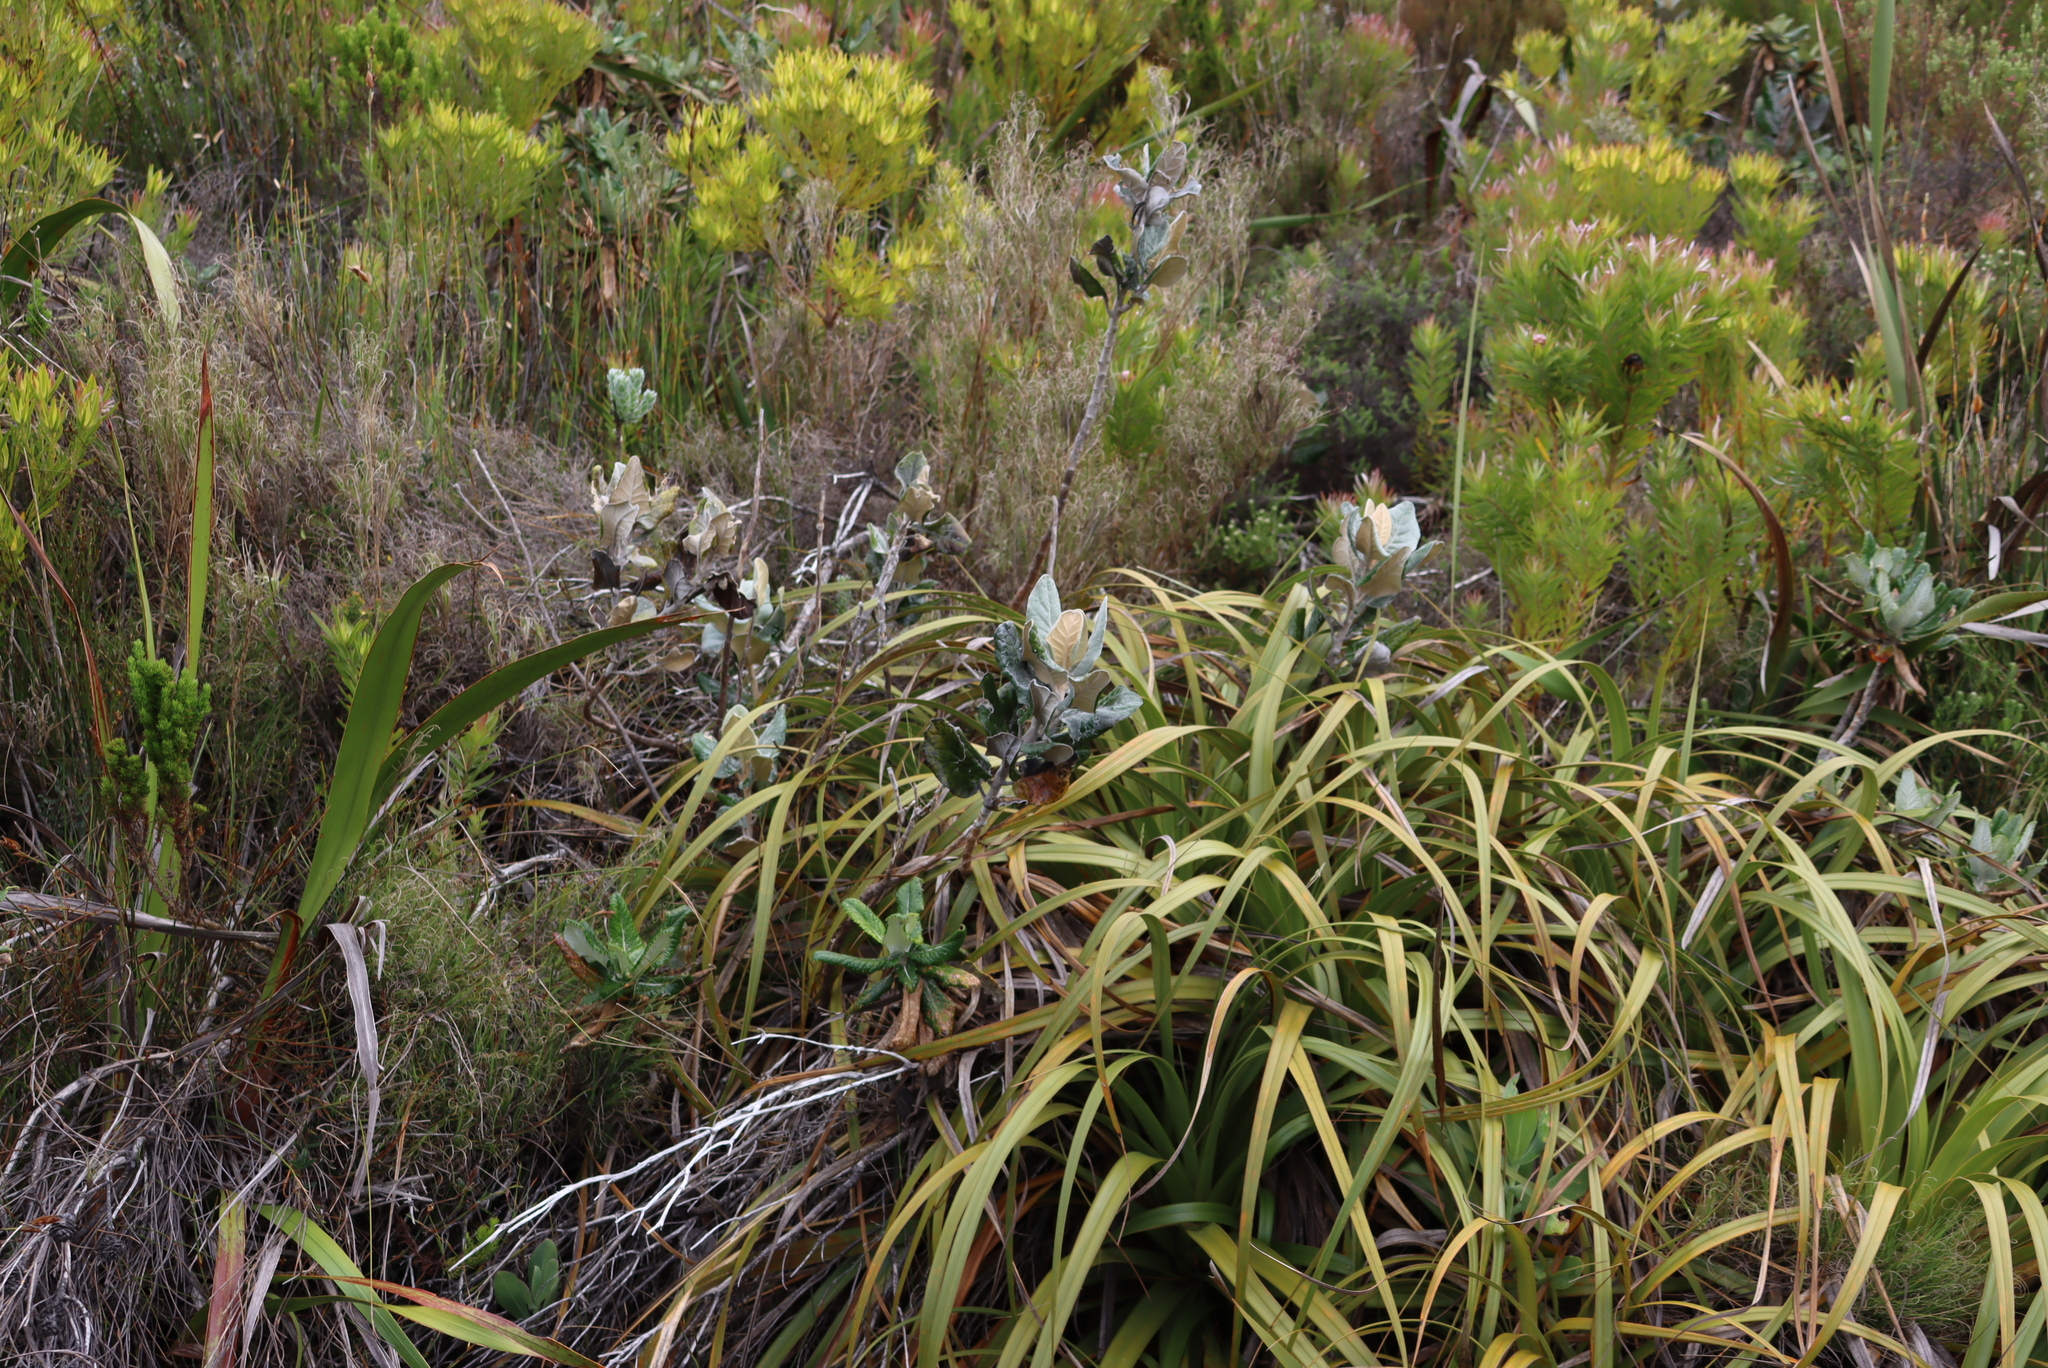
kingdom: Plantae
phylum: Tracheophyta
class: Liliopsida
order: Poales
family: Cyperaceae
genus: Tetraria
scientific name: Tetraria thermalis
